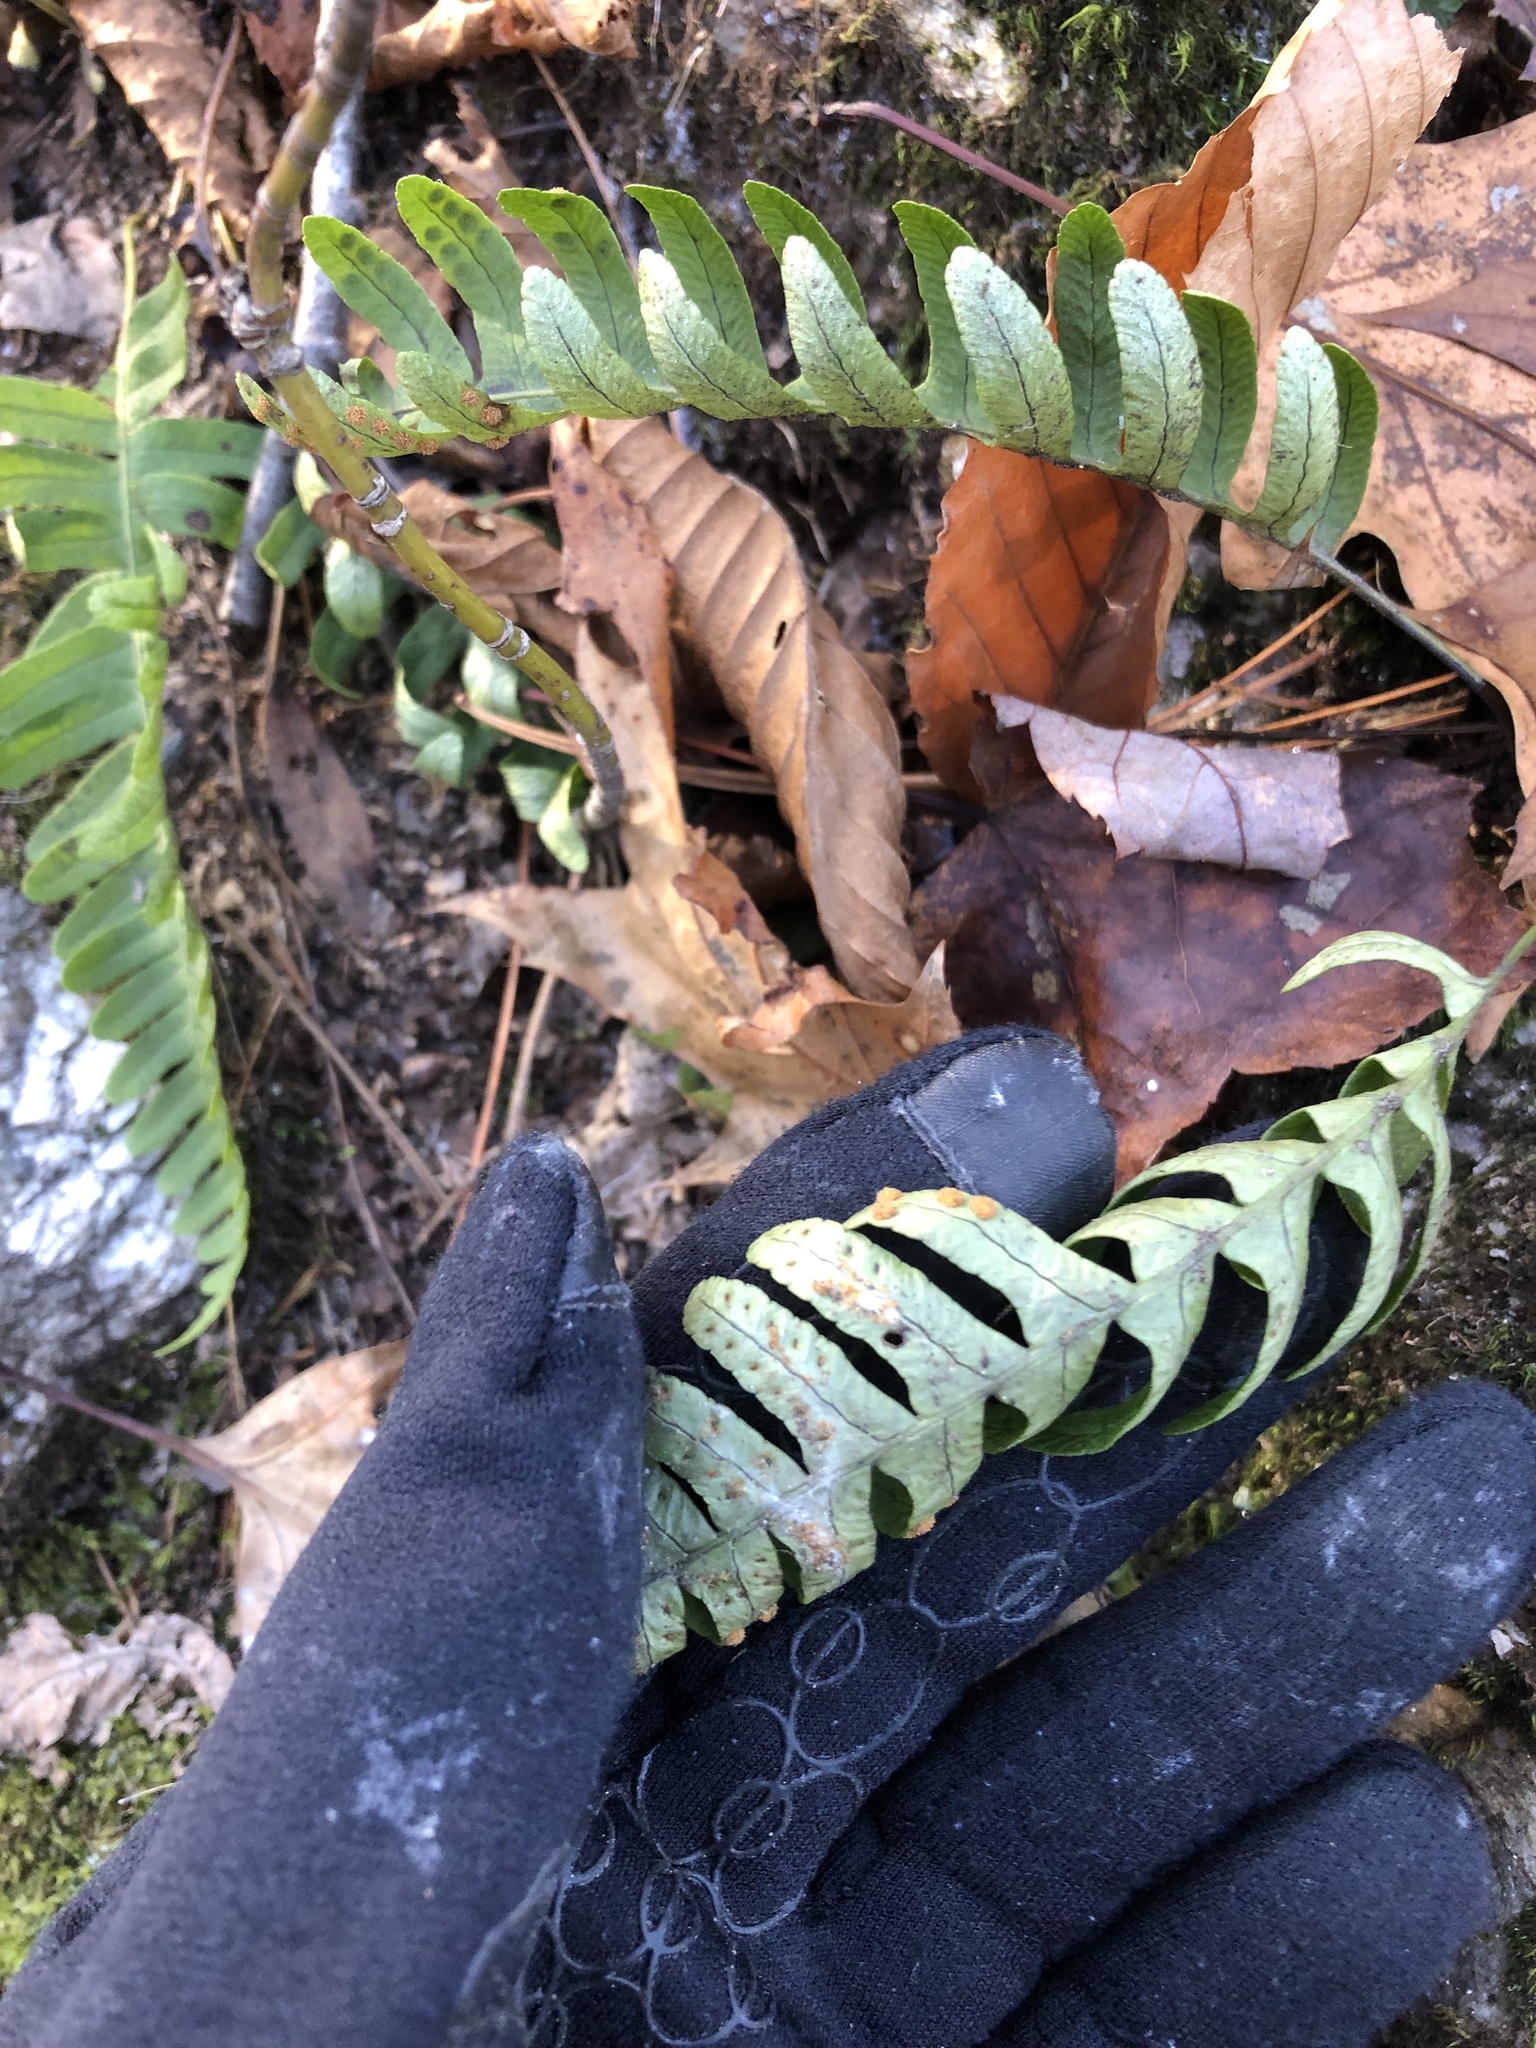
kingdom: Plantae
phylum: Tracheophyta
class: Polypodiopsida
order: Polypodiales
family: Polypodiaceae
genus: Polypodium
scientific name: Polypodium virginianum
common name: American wall fern
